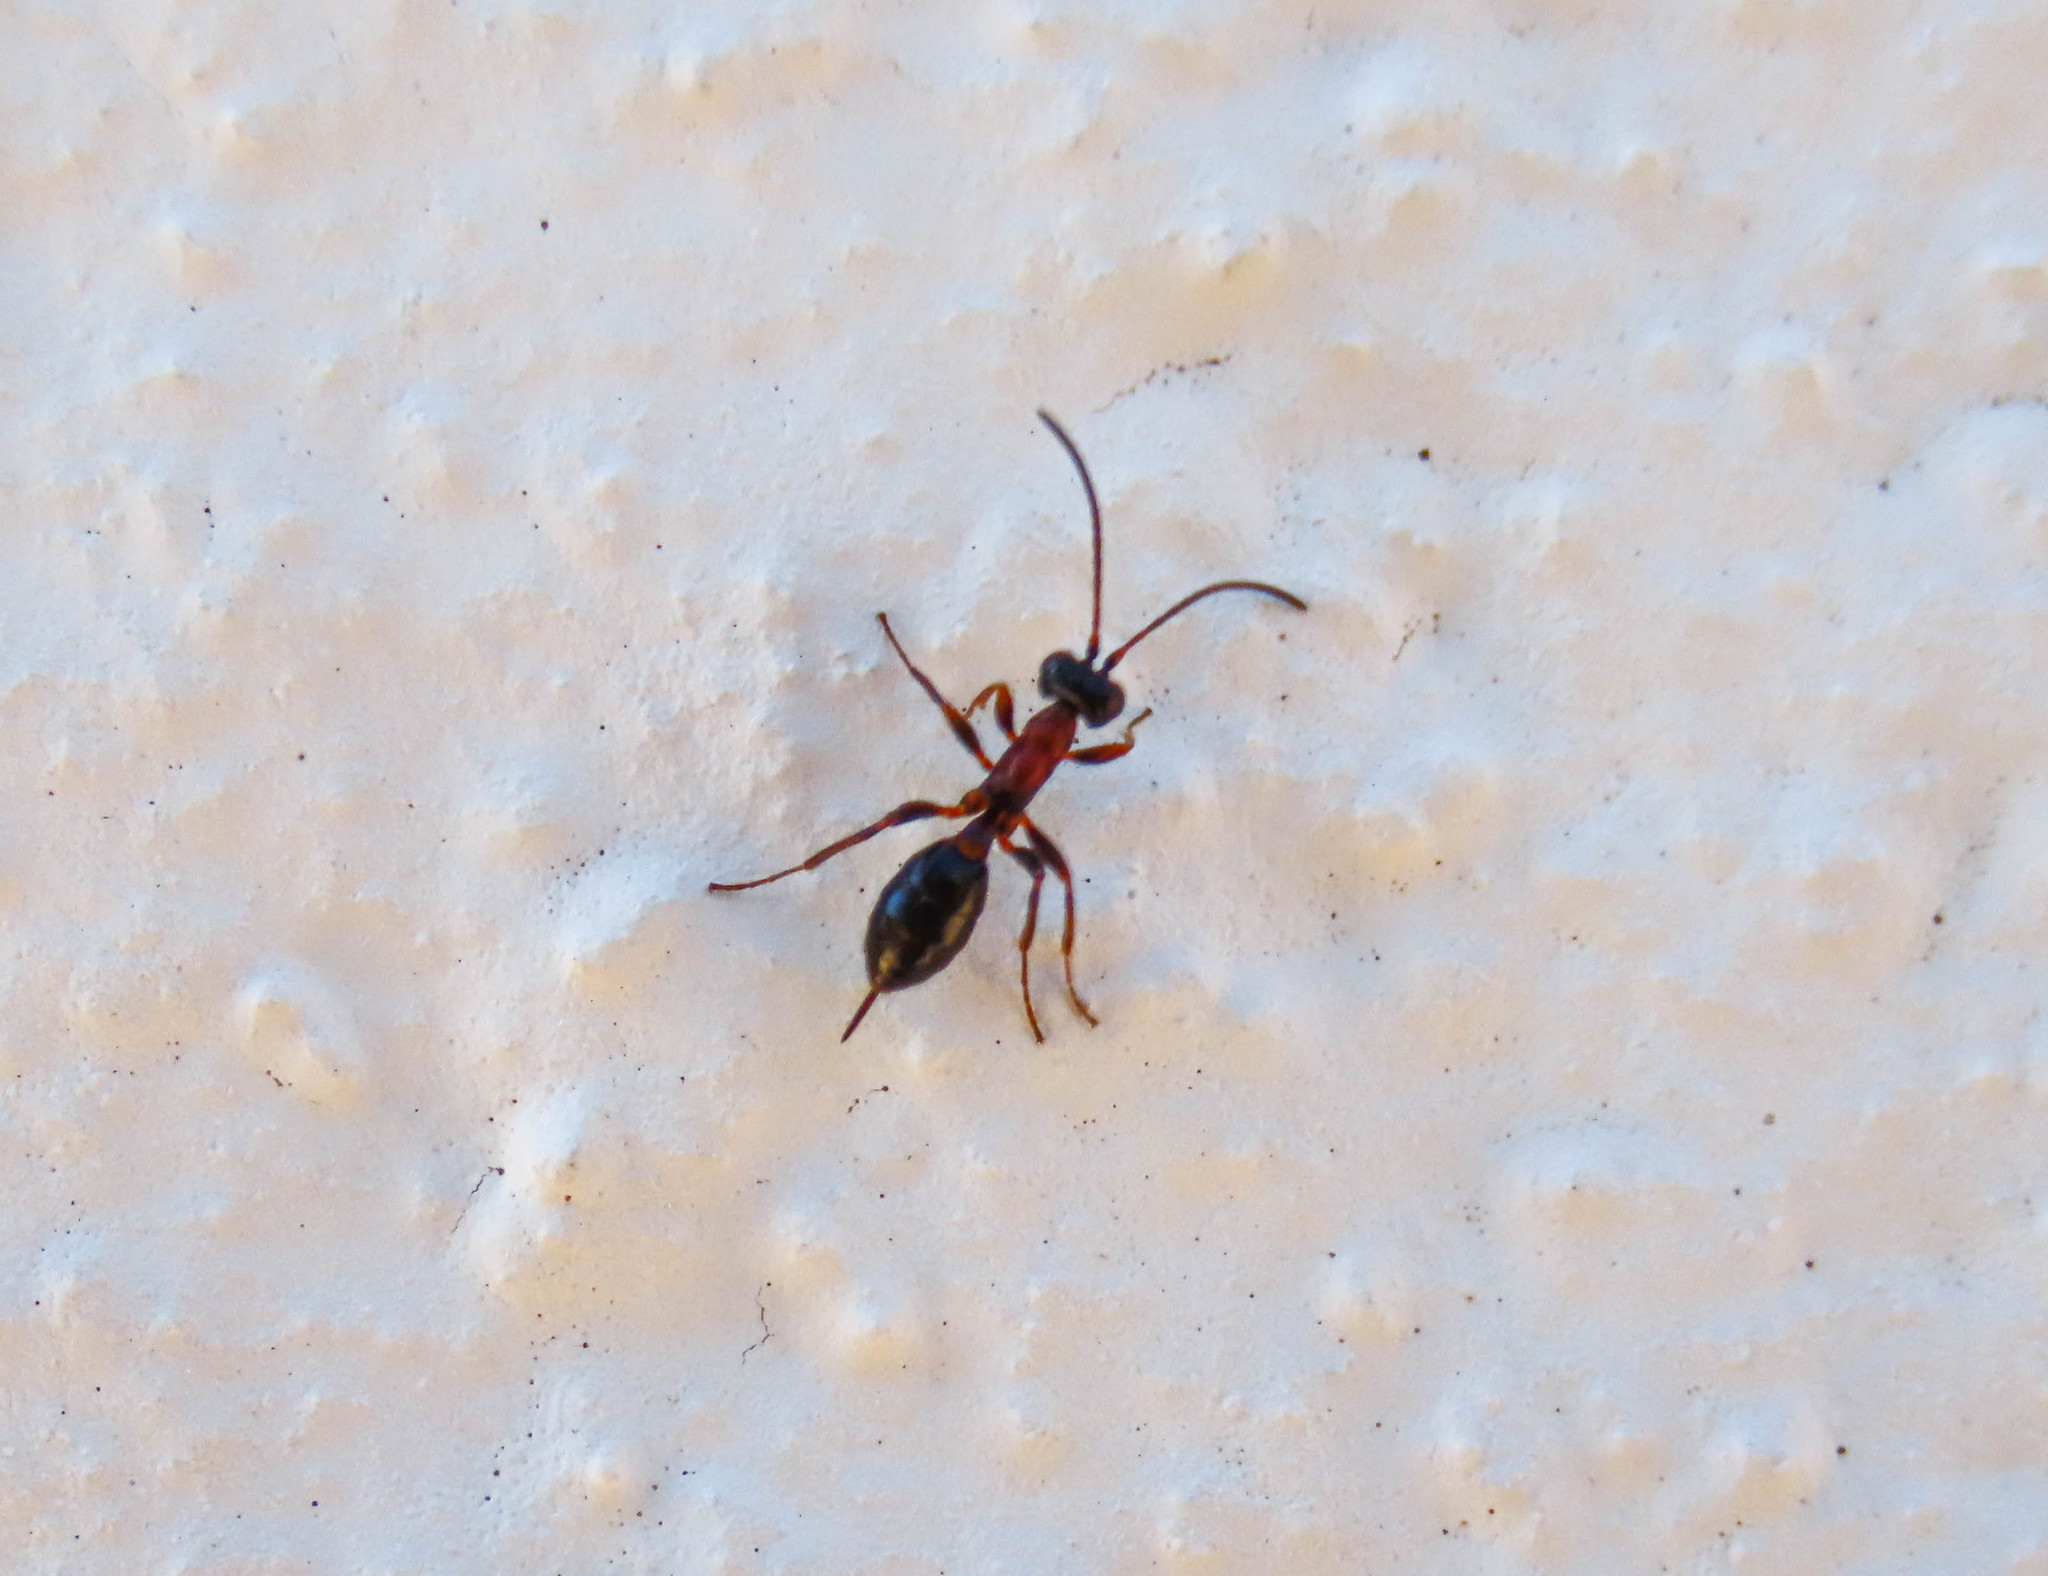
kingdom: Animalia
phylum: Arthropoda
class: Insecta
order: Hymenoptera
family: Ichneumonidae
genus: Thaumatogelis
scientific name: Thaumatogelis gallicus
